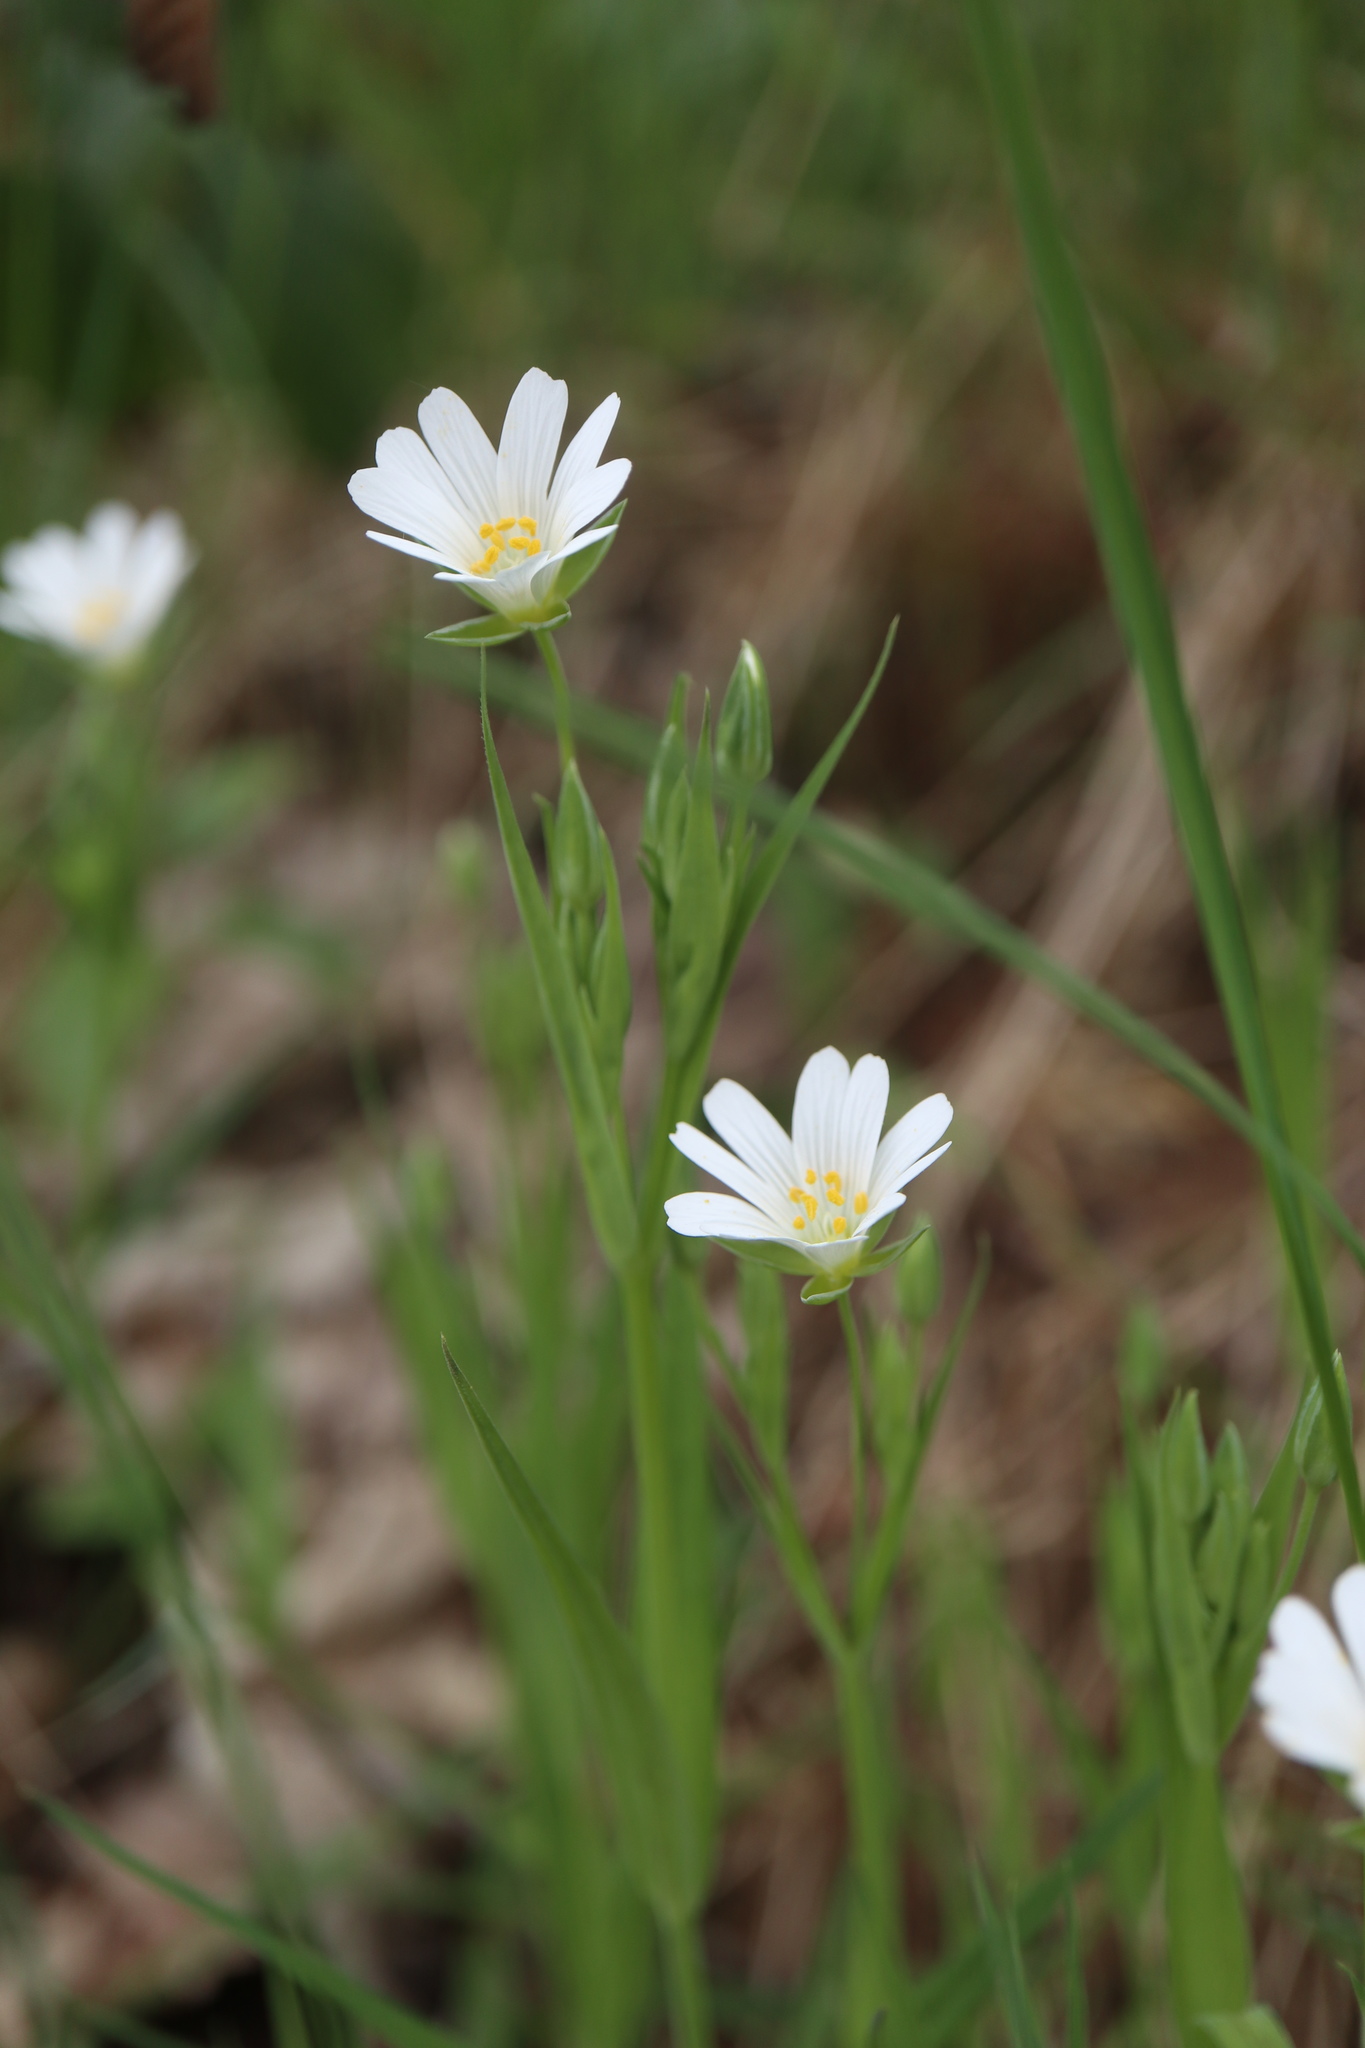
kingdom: Plantae
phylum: Tracheophyta
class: Magnoliopsida
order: Caryophyllales
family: Caryophyllaceae
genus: Rabelera
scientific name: Rabelera holostea
